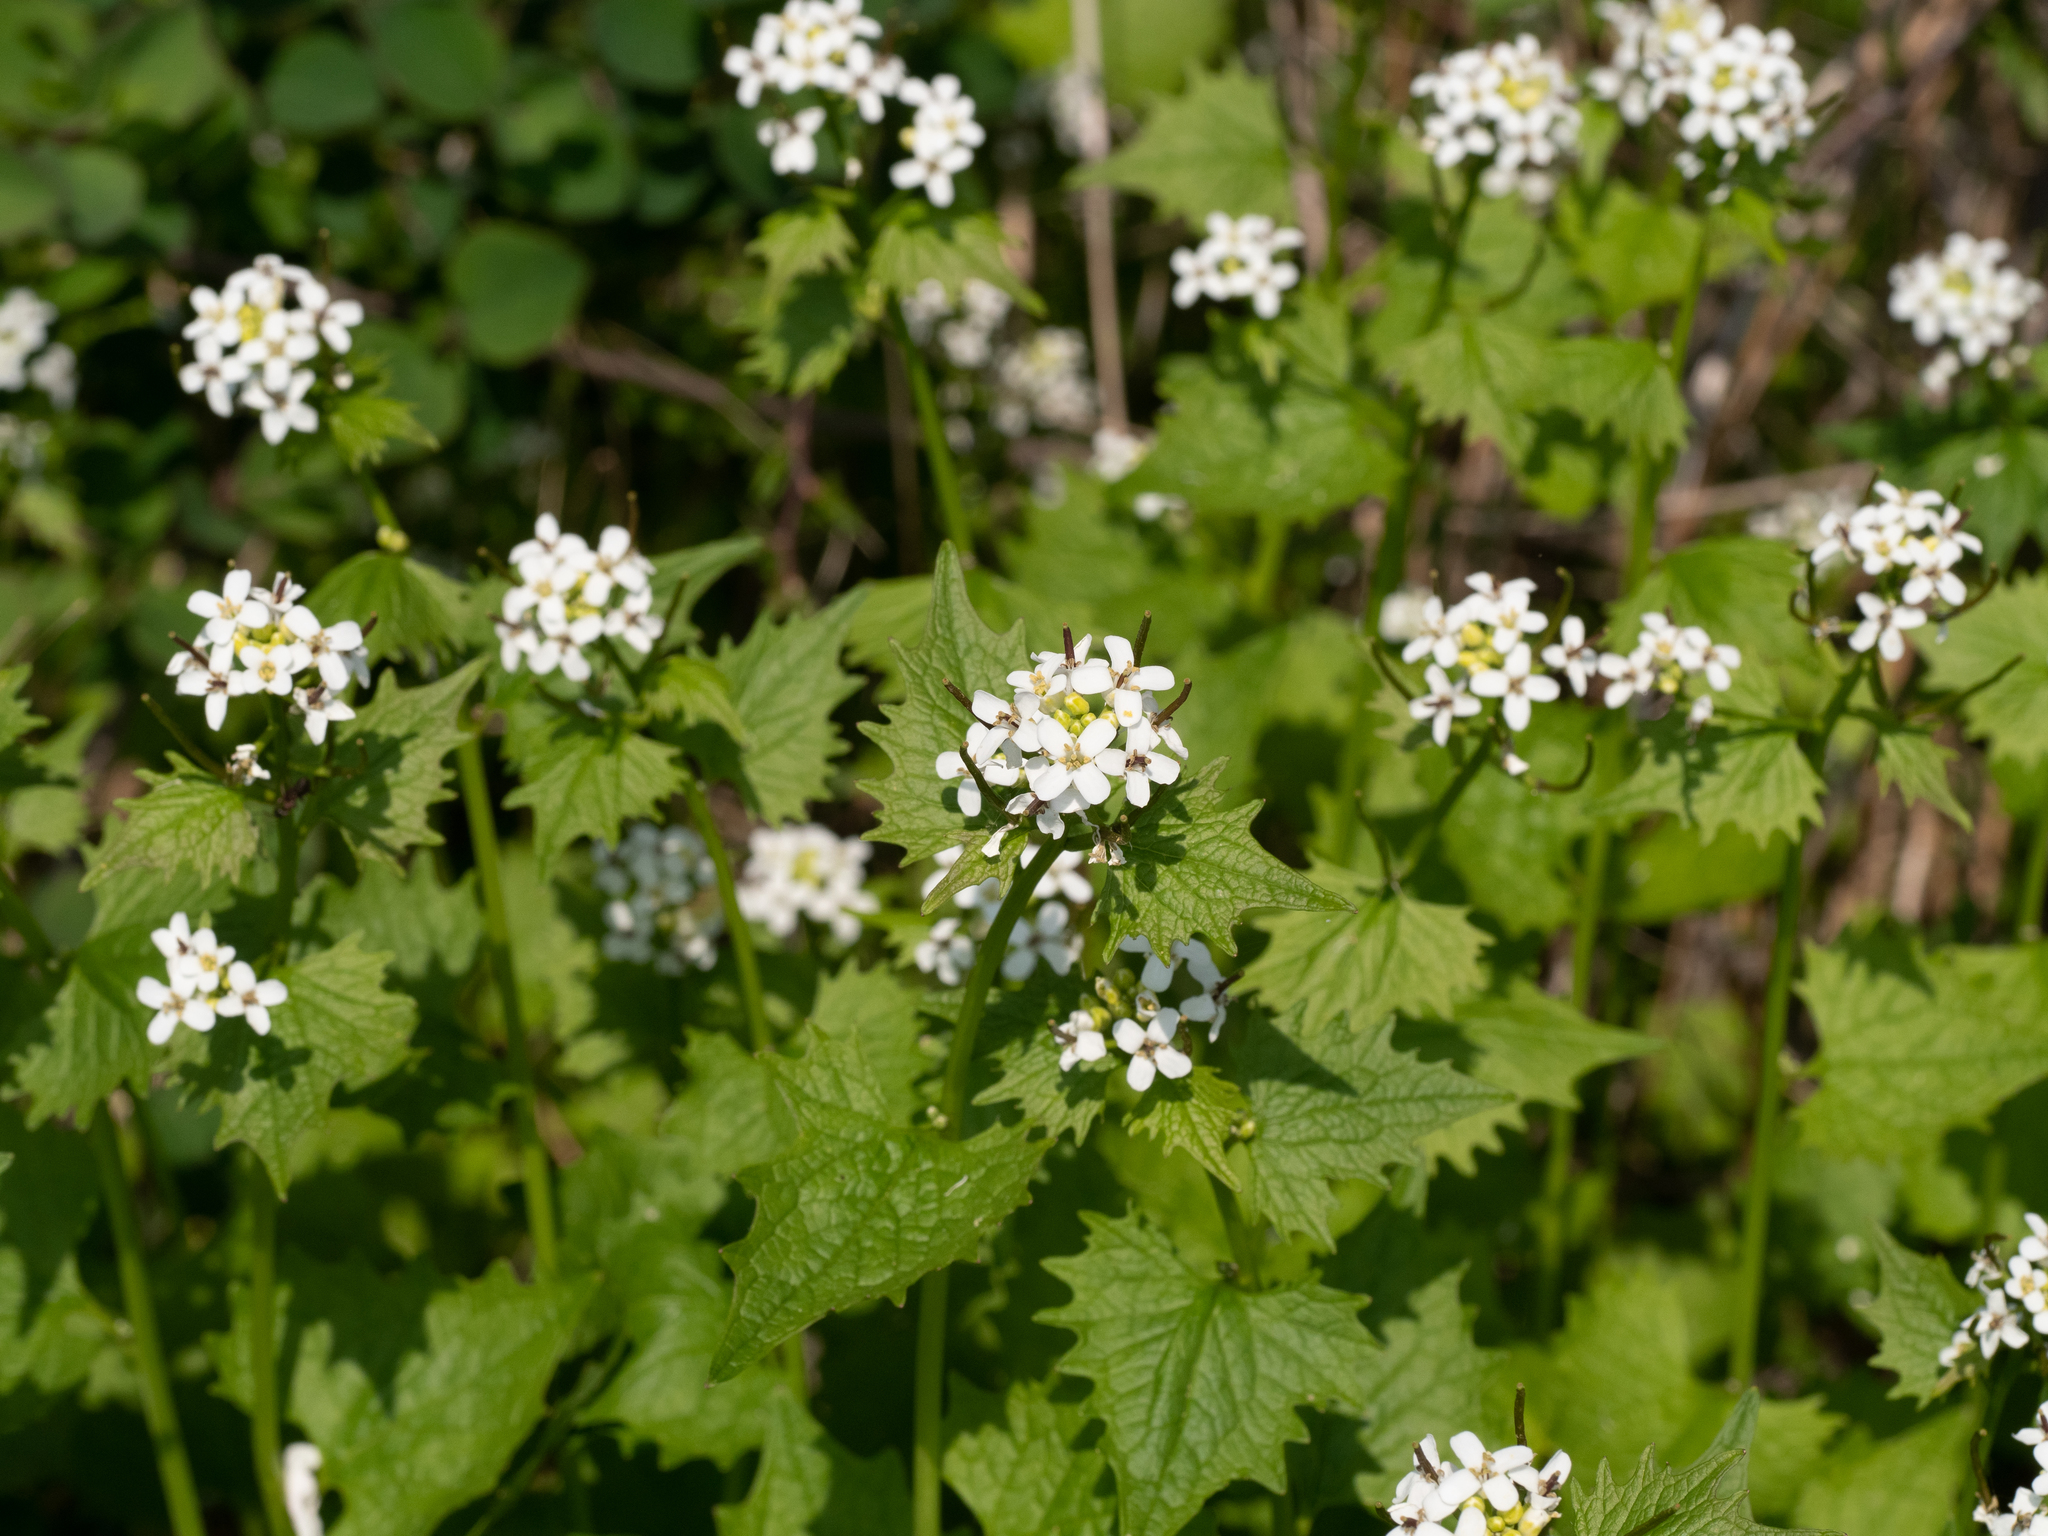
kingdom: Plantae
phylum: Tracheophyta
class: Magnoliopsida
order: Brassicales
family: Brassicaceae
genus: Alliaria
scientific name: Alliaria petiolata
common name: Garlic mustard
